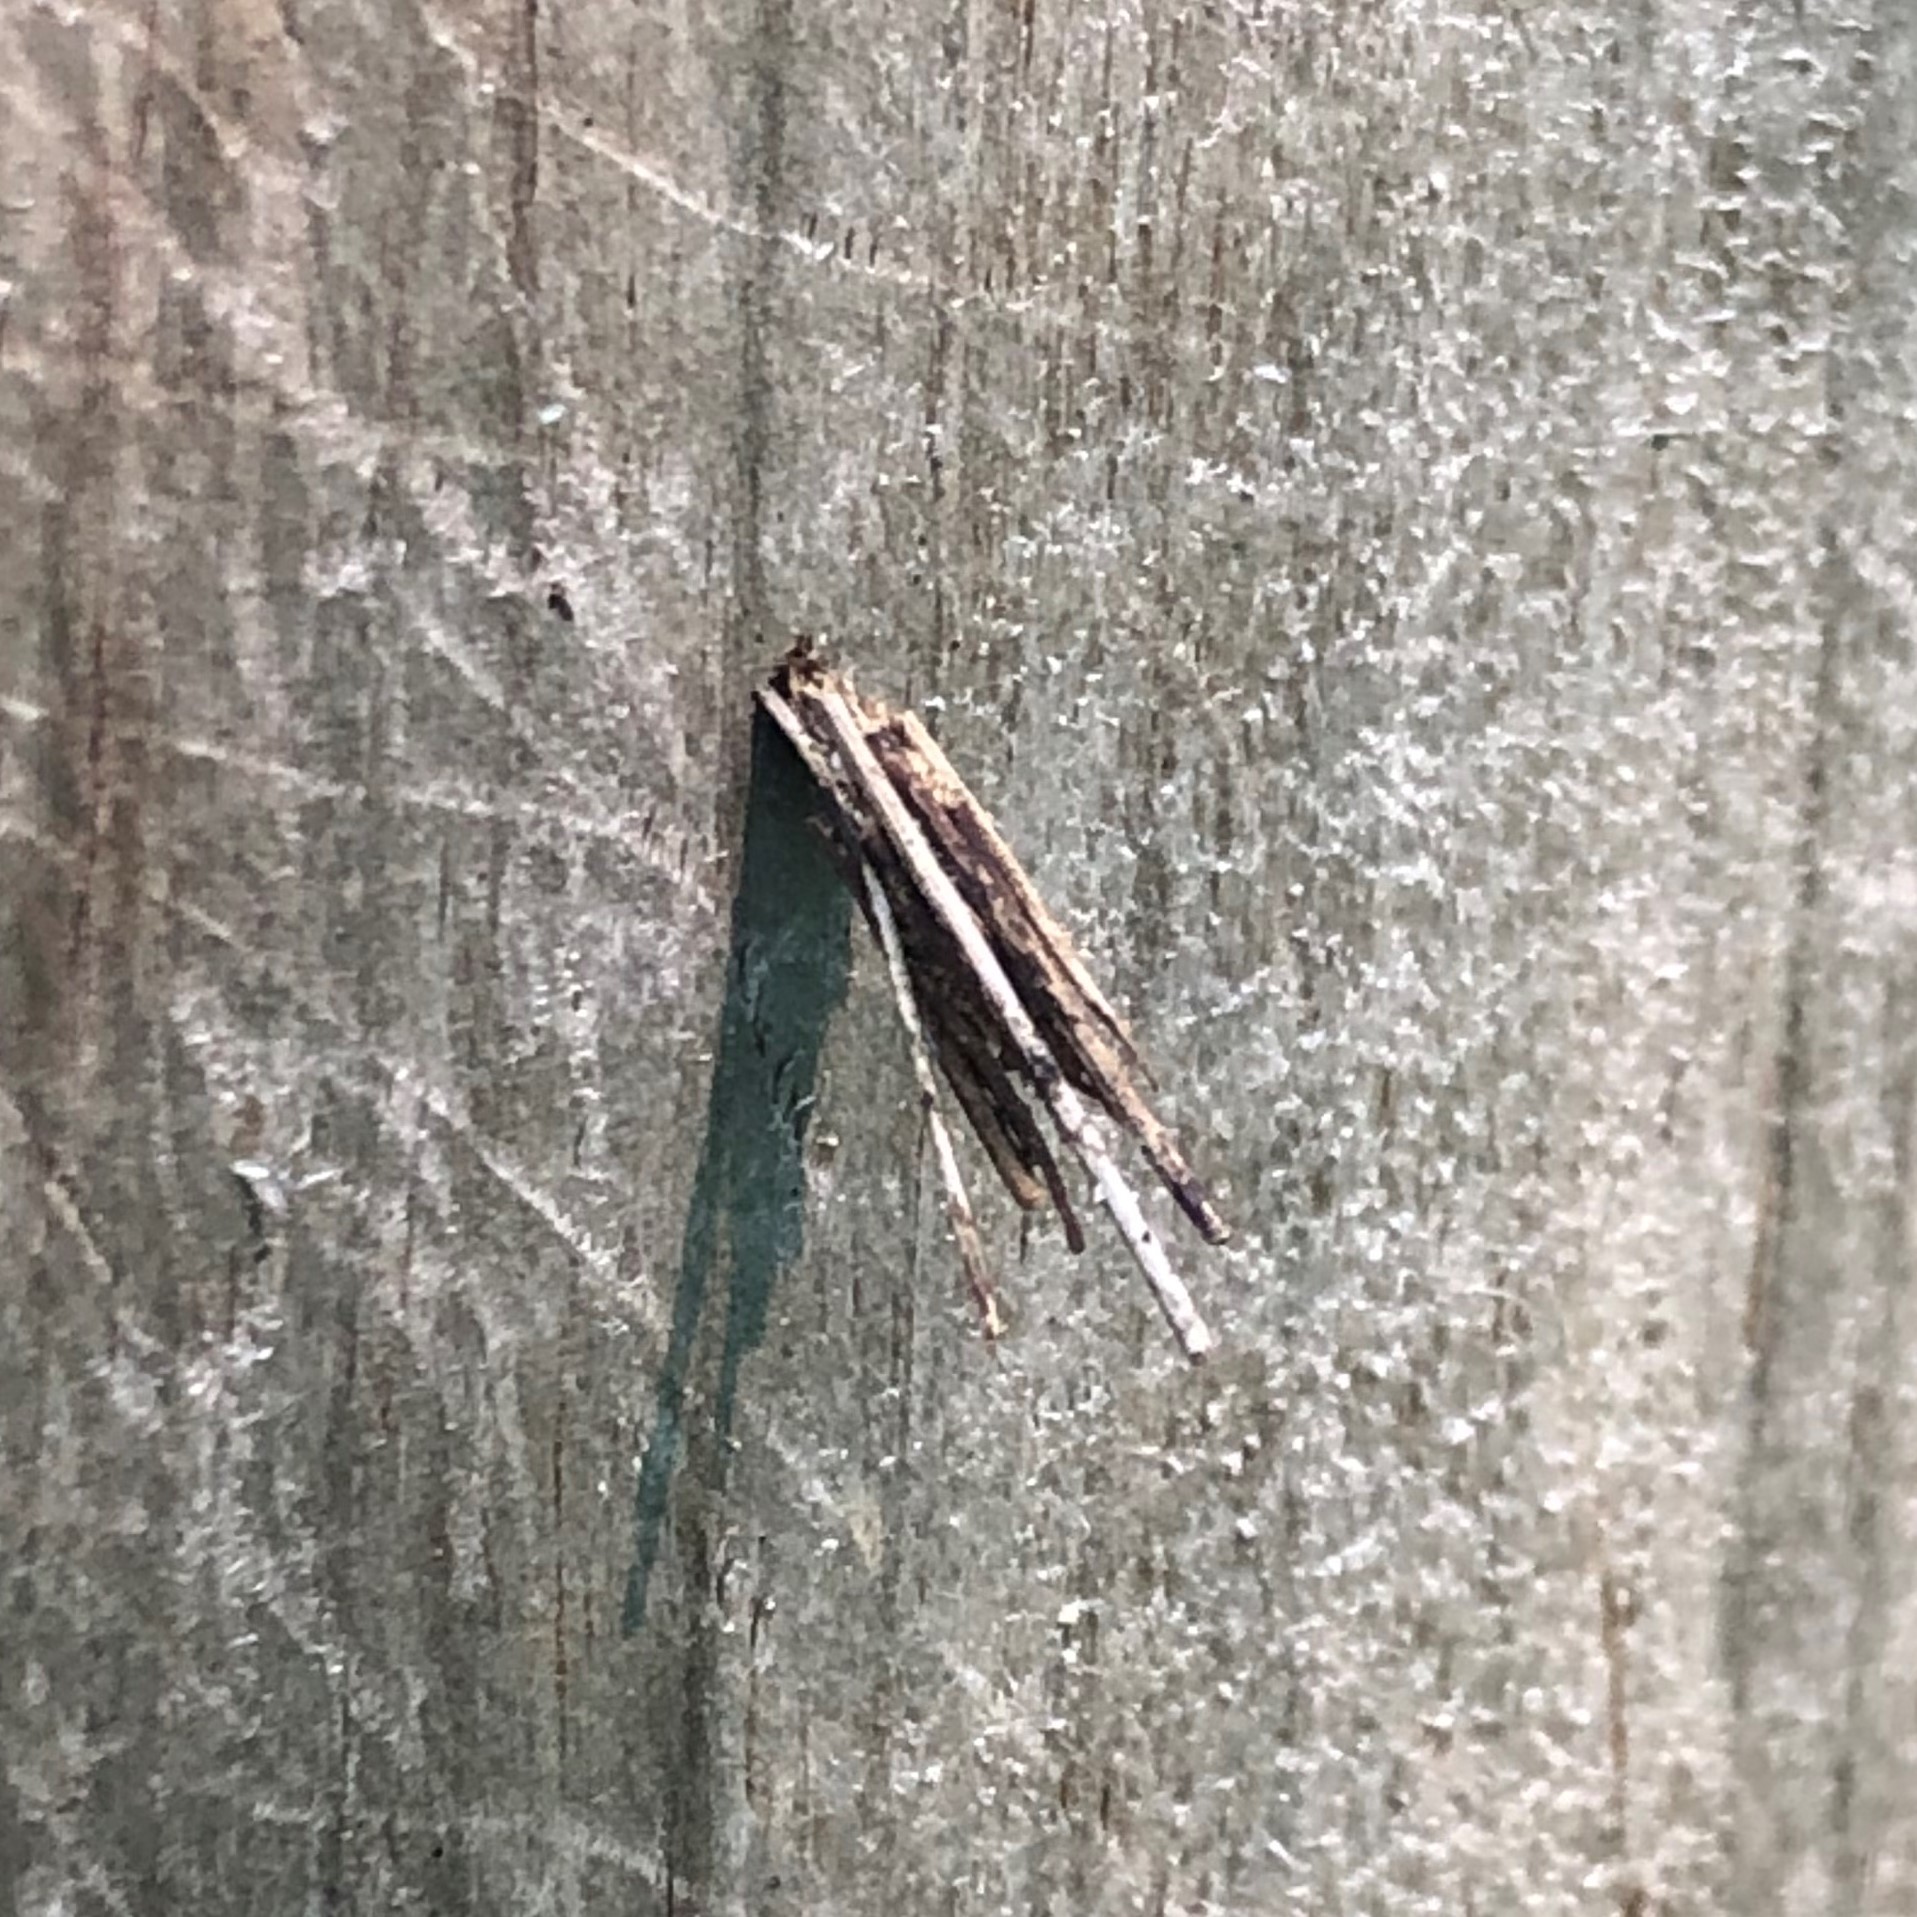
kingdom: Animalia
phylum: Arthropoda
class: Insecta
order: Lepidoptera
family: Psychidae
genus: Psyche
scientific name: Psyche casta
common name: Common sweep
